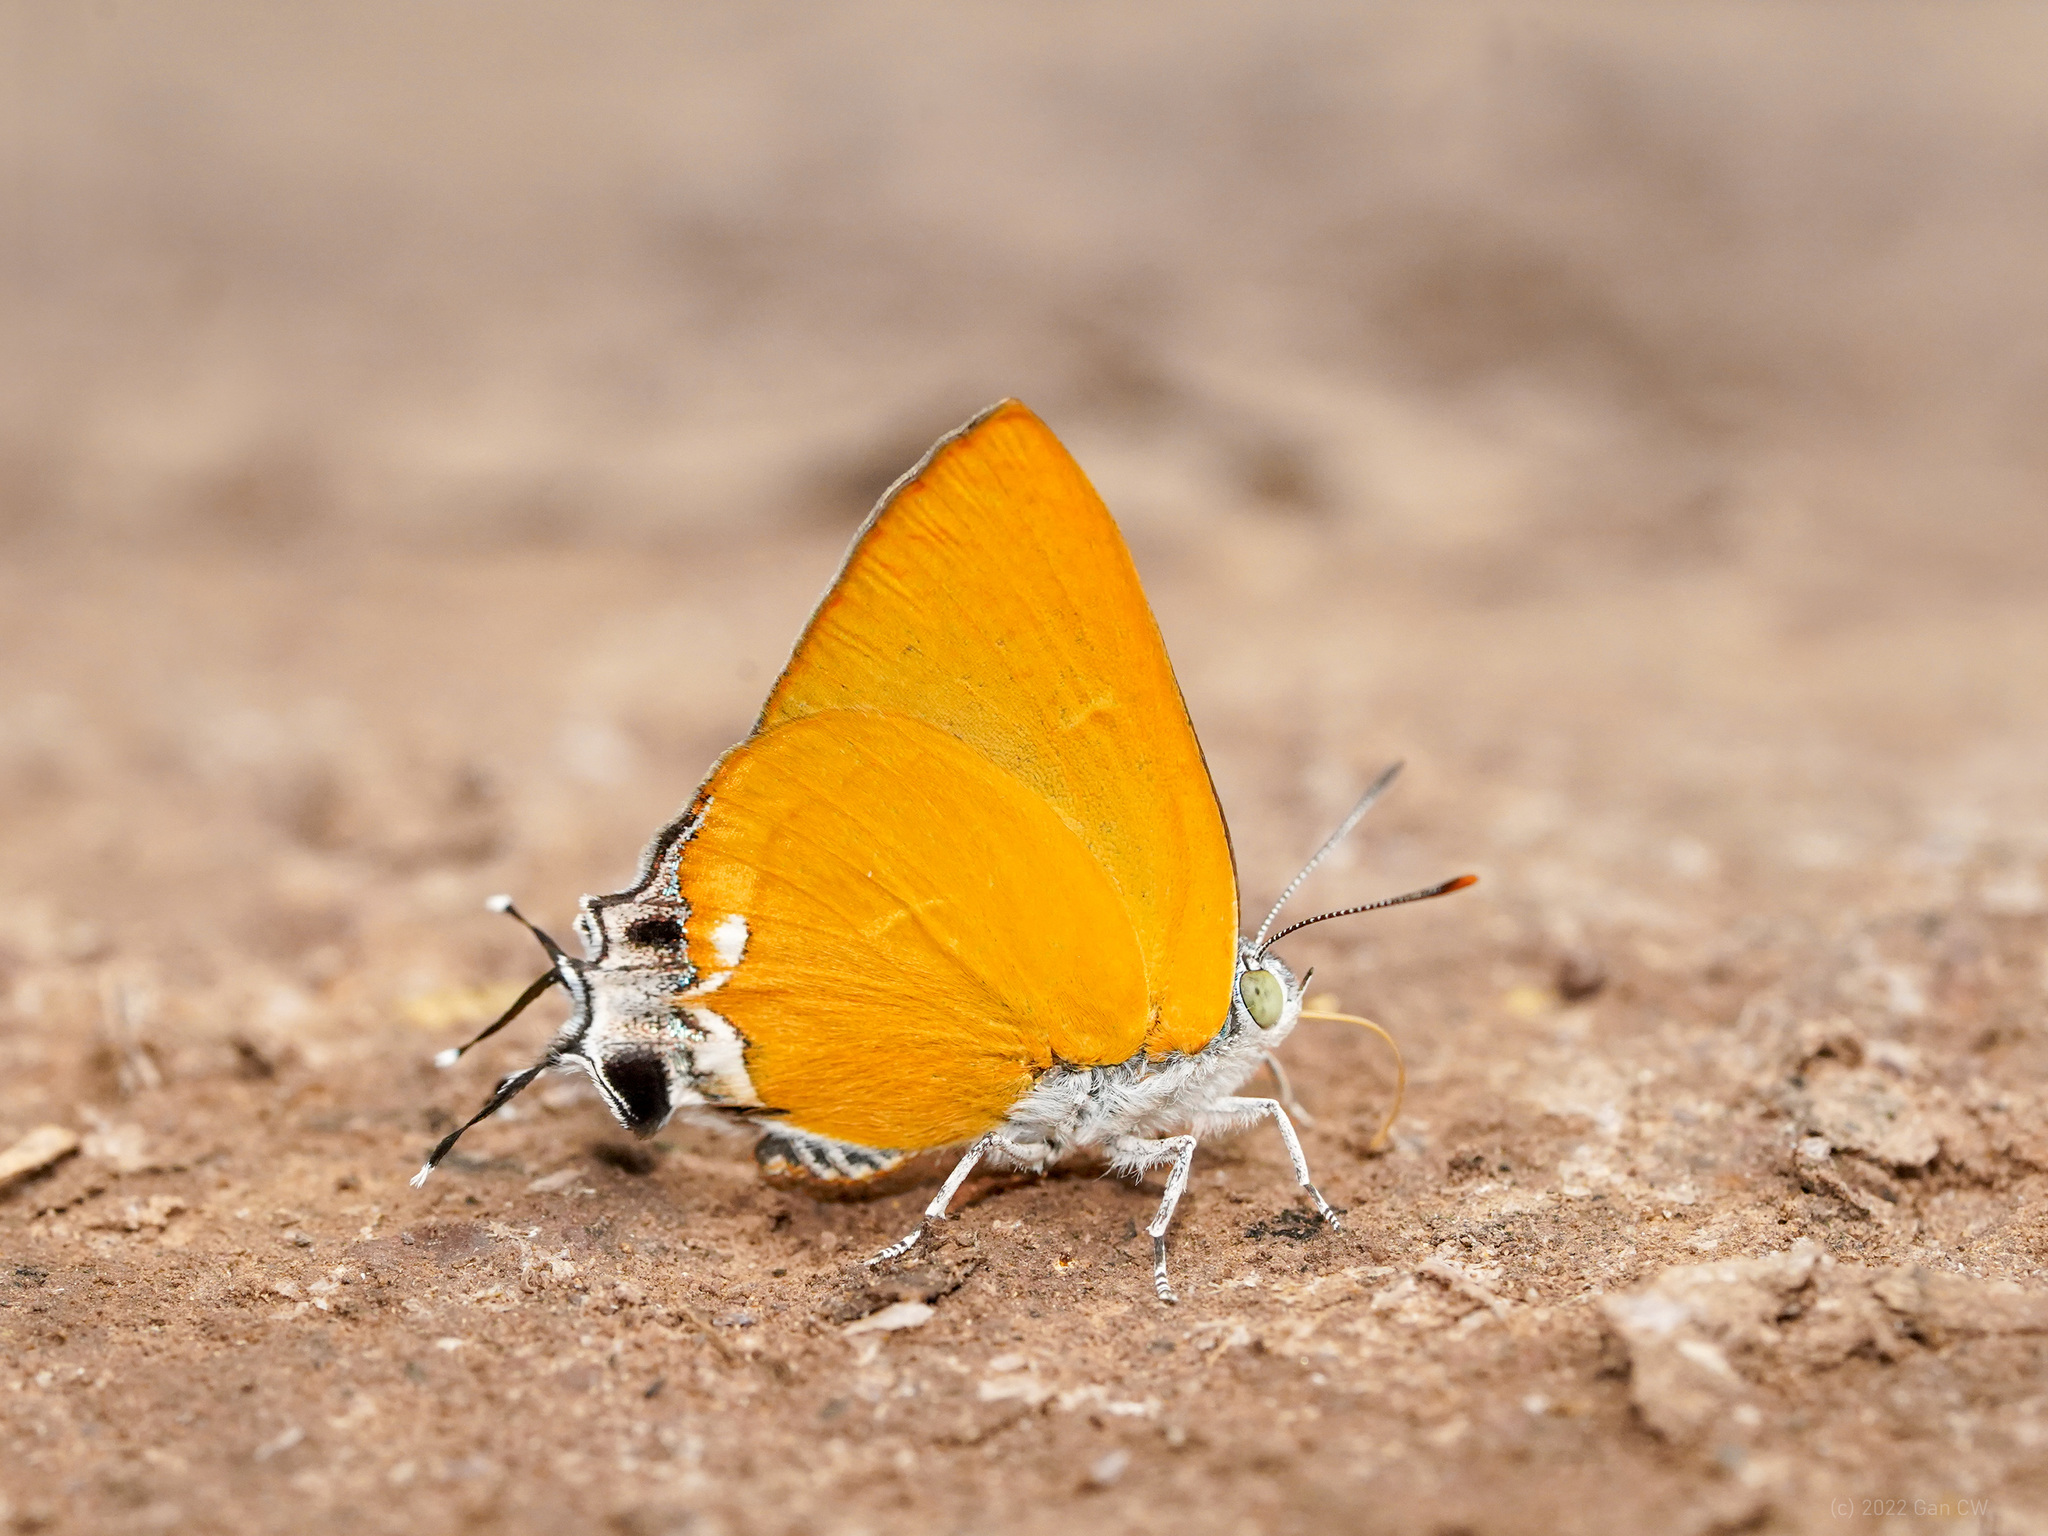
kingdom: Animalia
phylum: Arthropoda
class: Insecta
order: Lepidoptera
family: Lycaenidae
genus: Pseudomyrina
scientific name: Pseudomyrina
